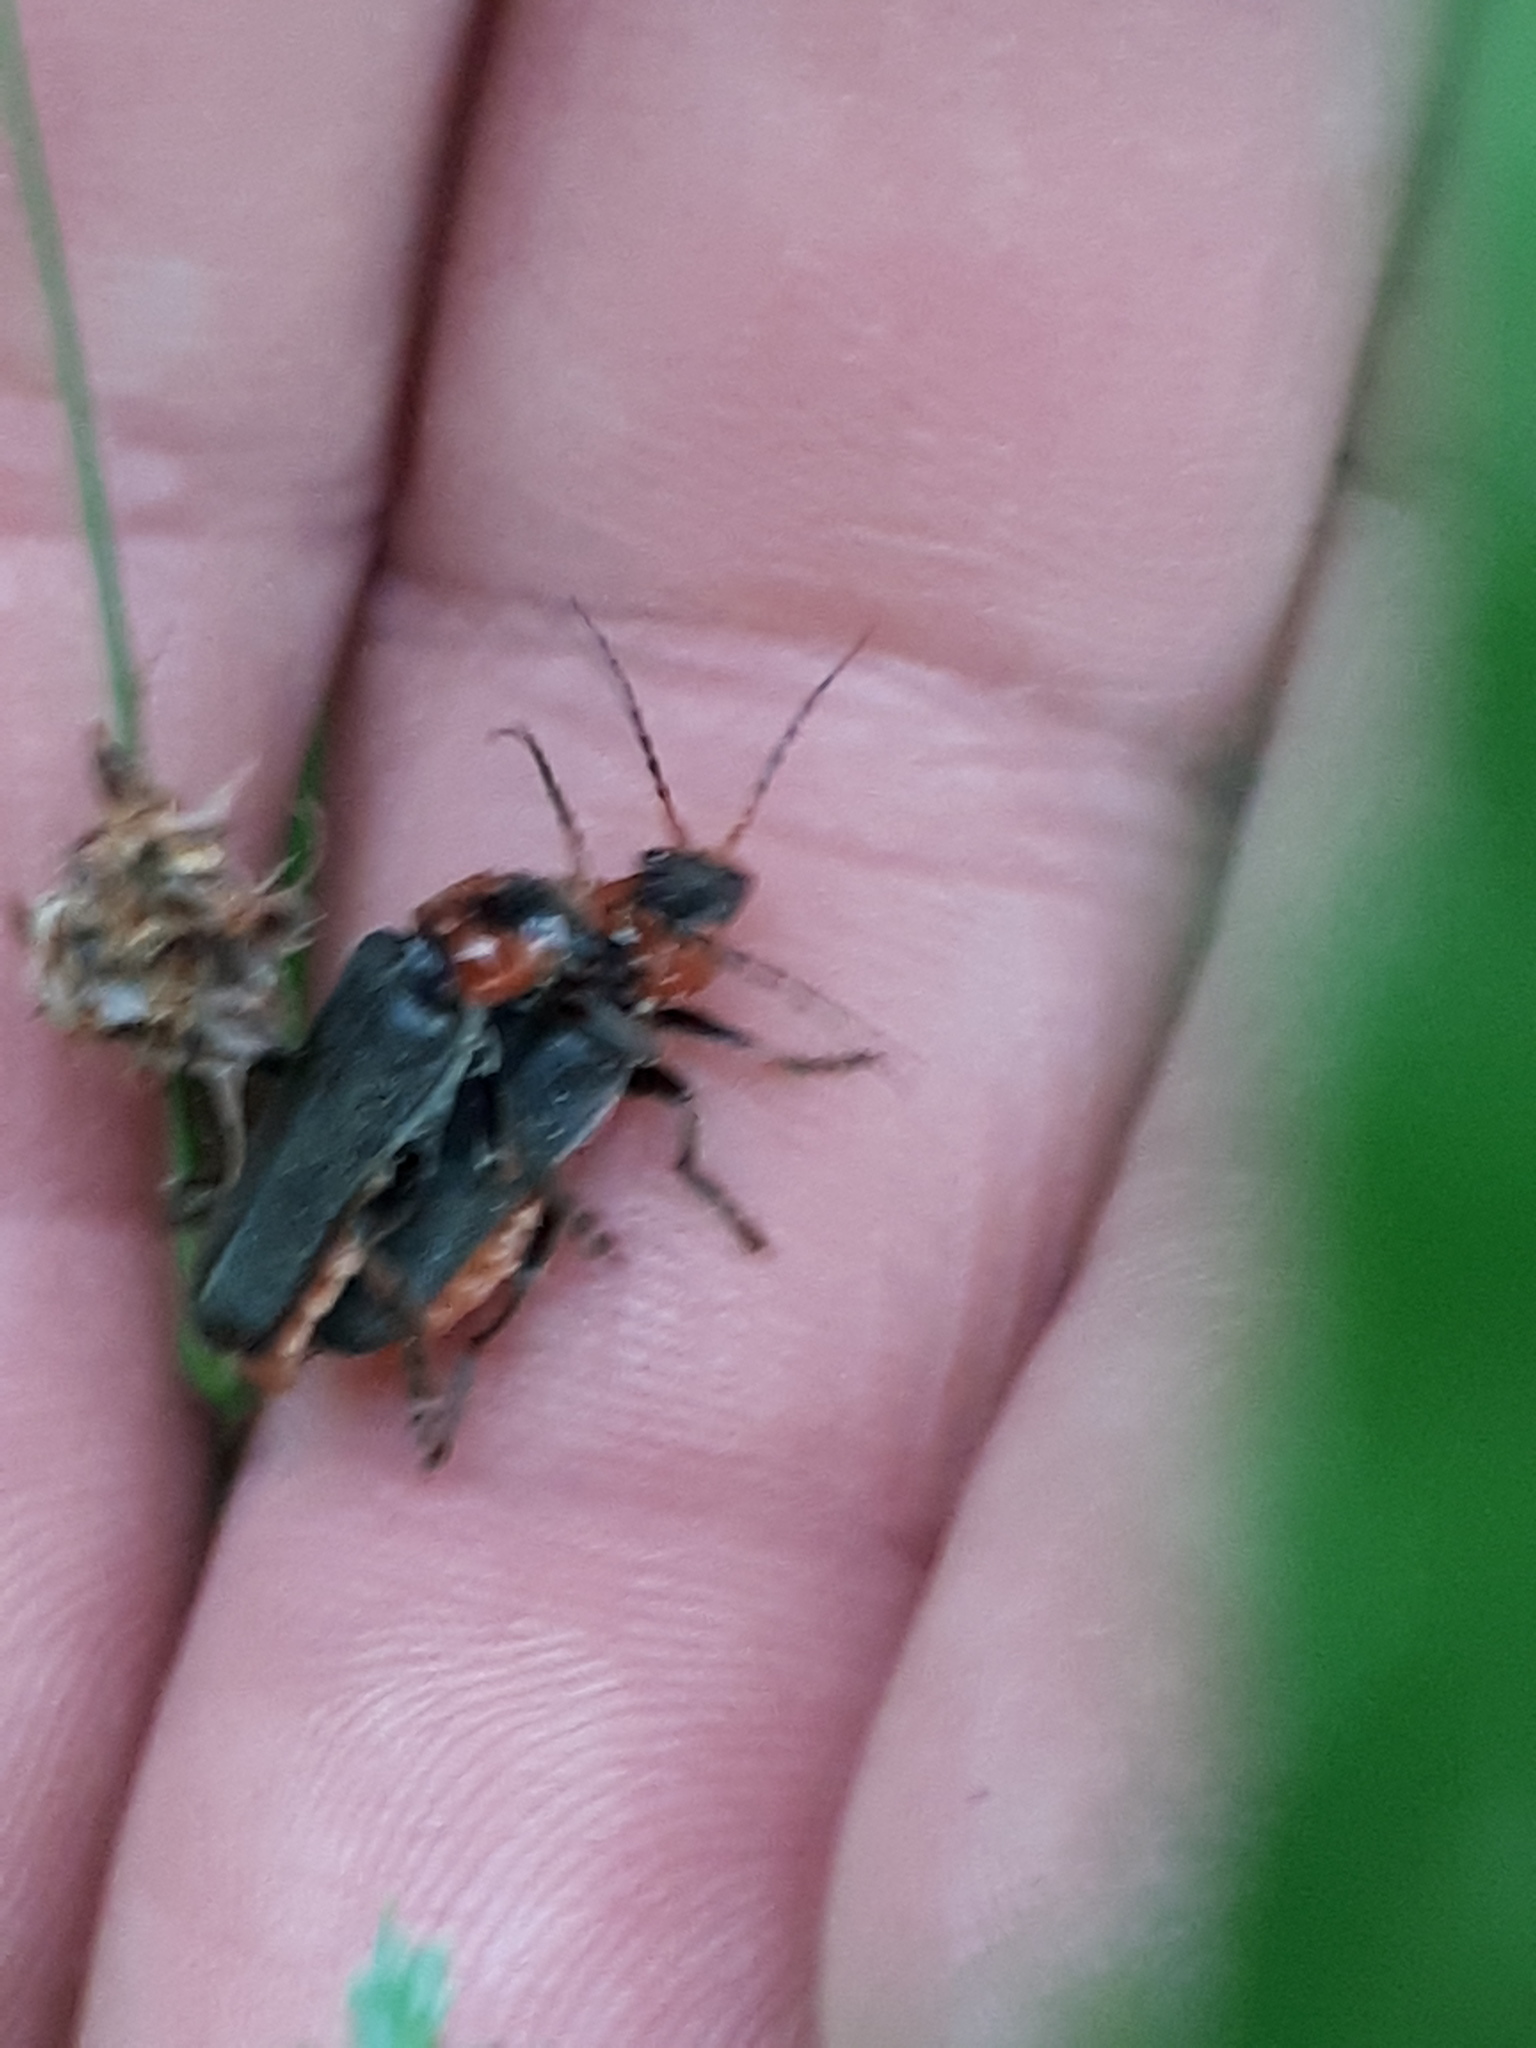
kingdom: Animalia
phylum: Arthropoda
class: Insecta
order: Coleoptera
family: Cantharidae
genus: Cantharis
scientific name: Cantharis fusca
